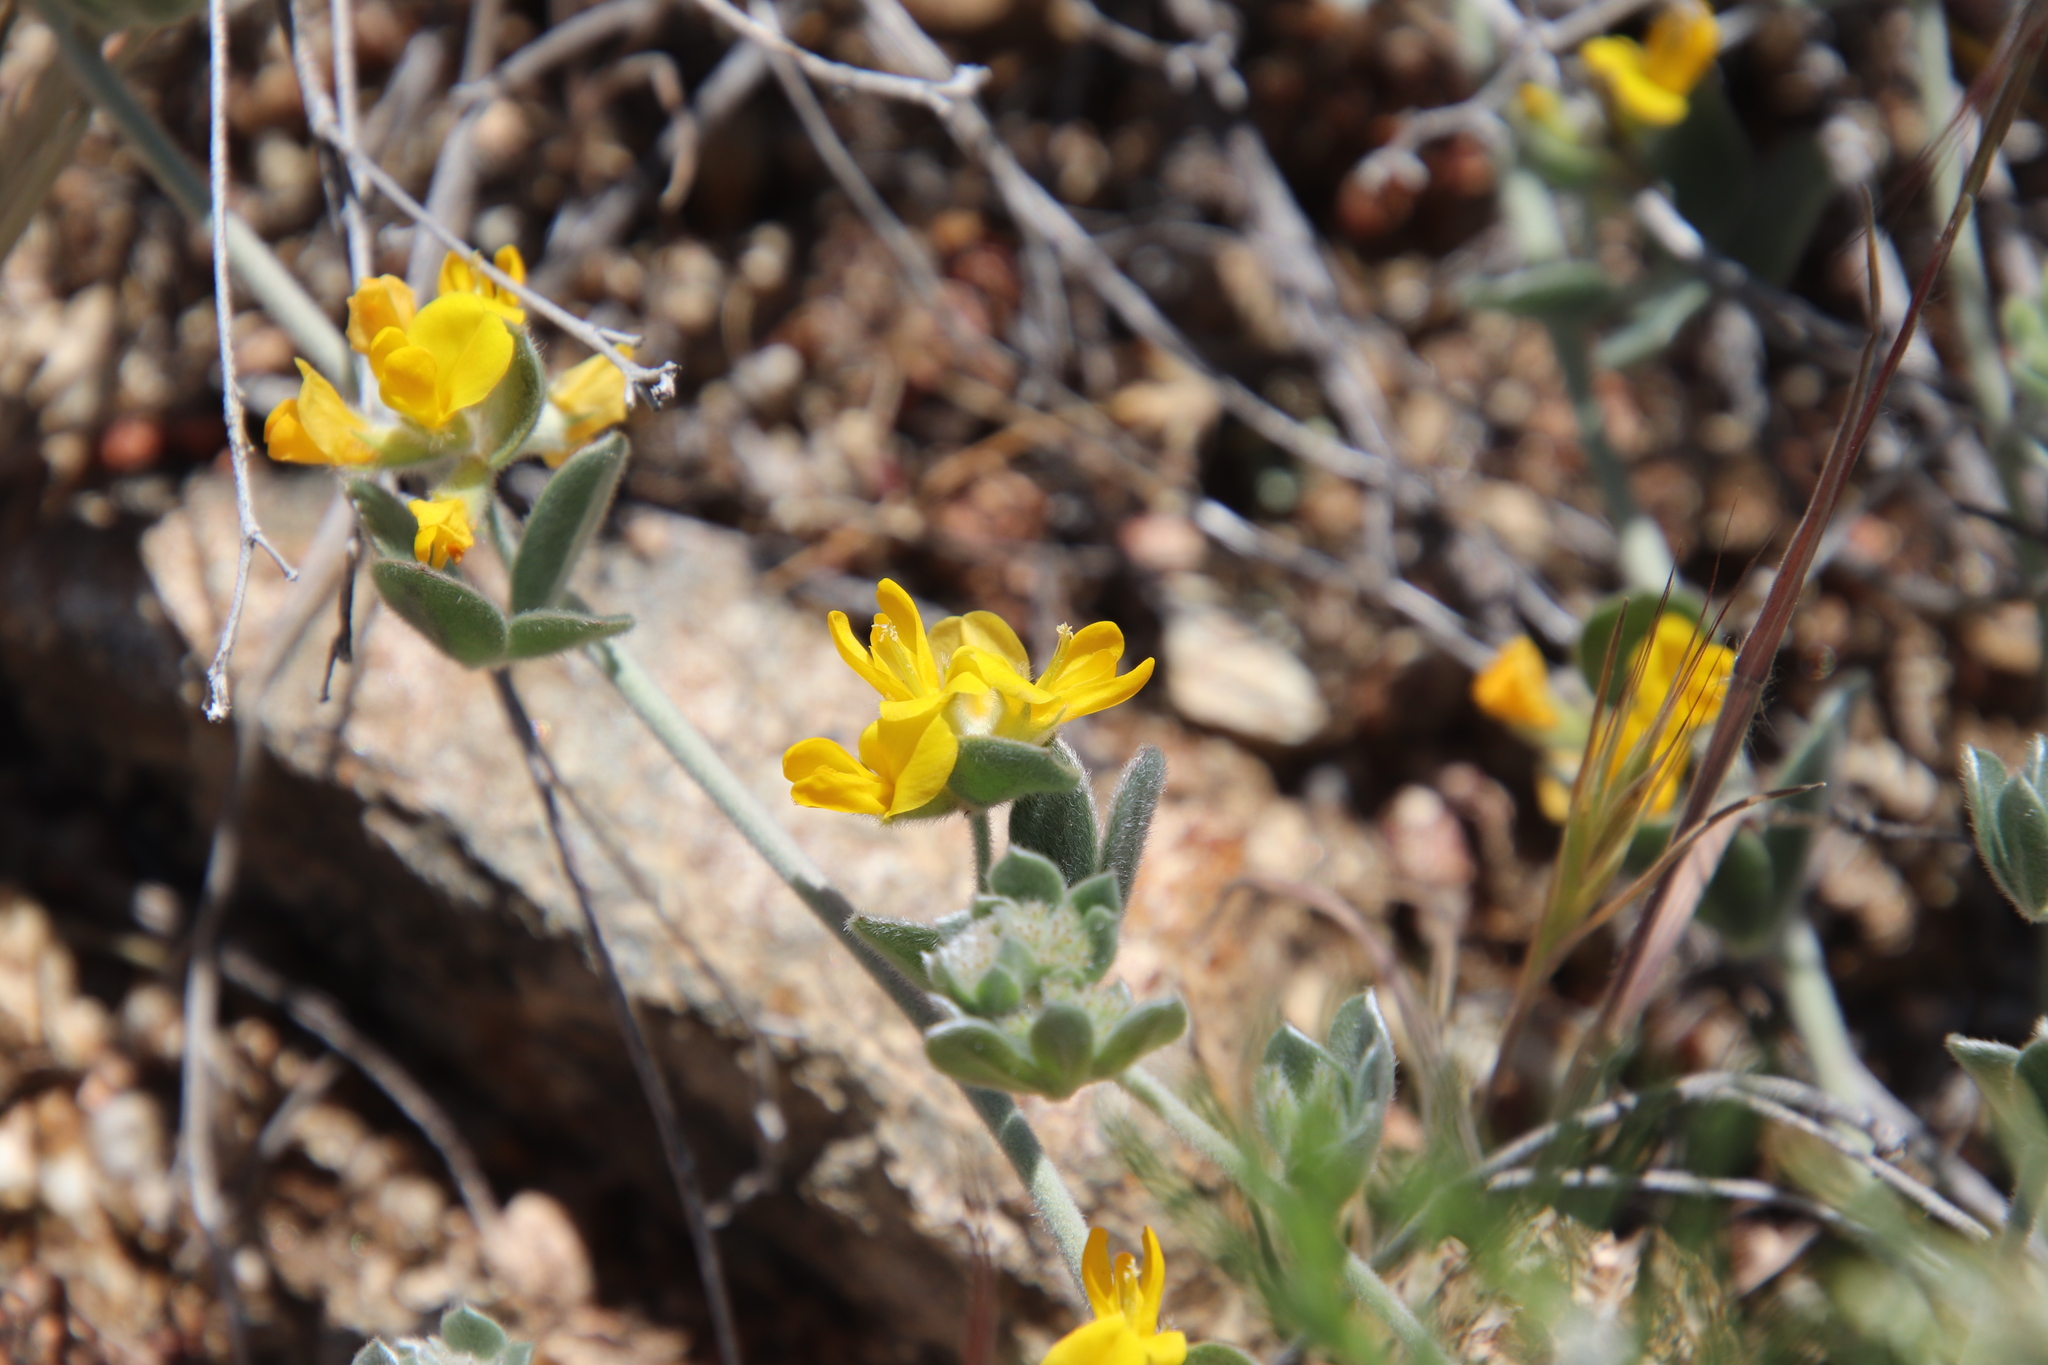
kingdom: Plantae
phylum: Tracheophyta
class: Magnoliopsida
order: Fabales
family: Fabaceae
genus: Acmispon
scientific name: Acmispon argophyllus
